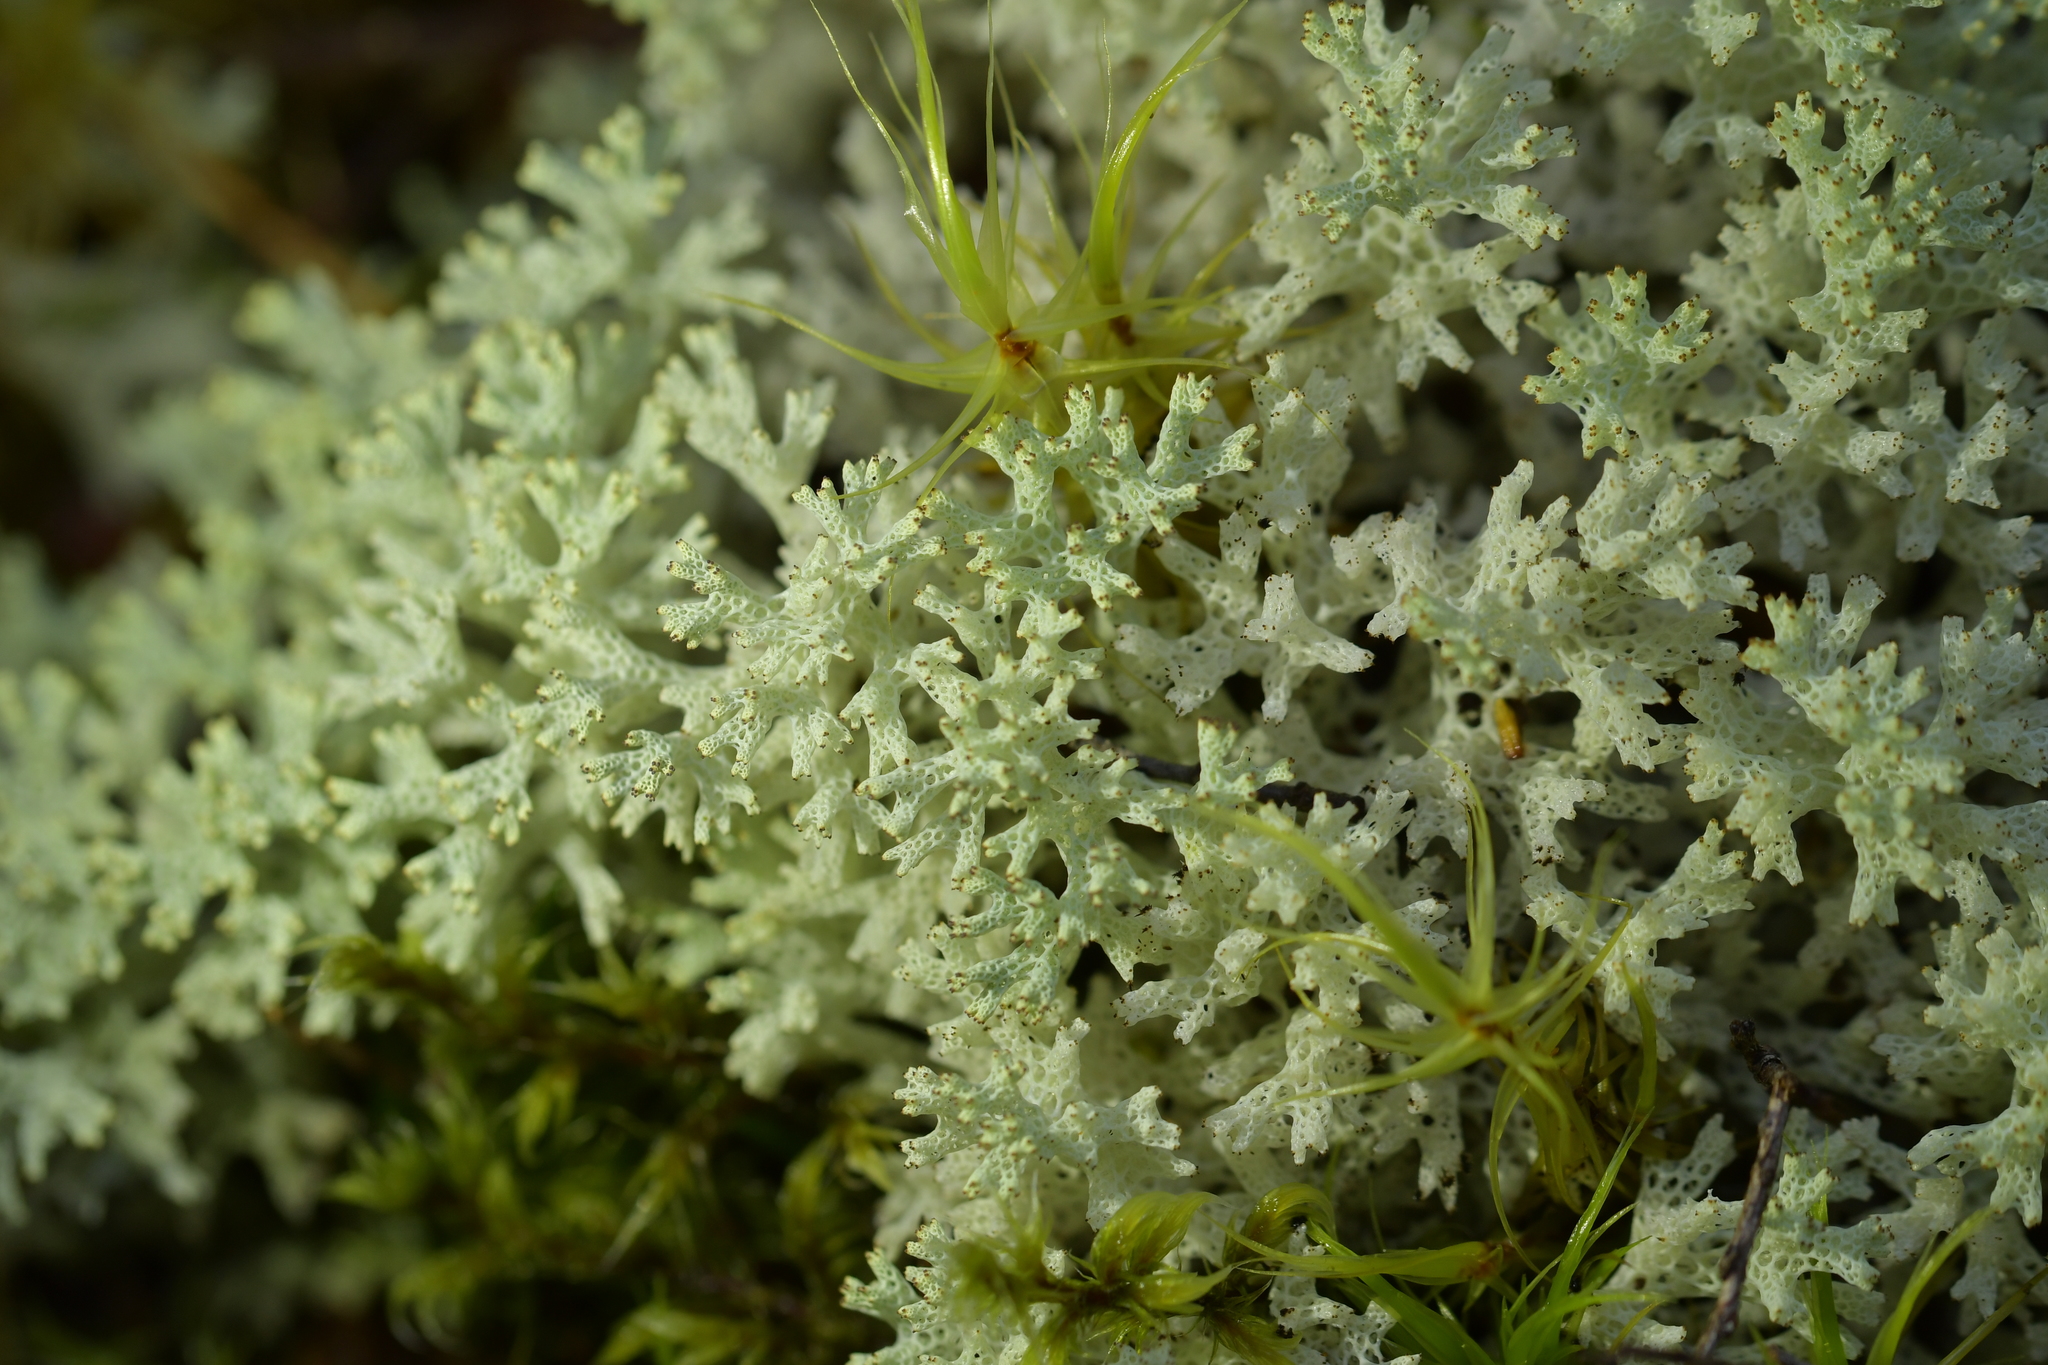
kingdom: Fungi
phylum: Ascomycota
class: Lecanoromycetes
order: Lecanorales
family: Cladoniaceae
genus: Pulchrocladia
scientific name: Pulchrocladia retipora
